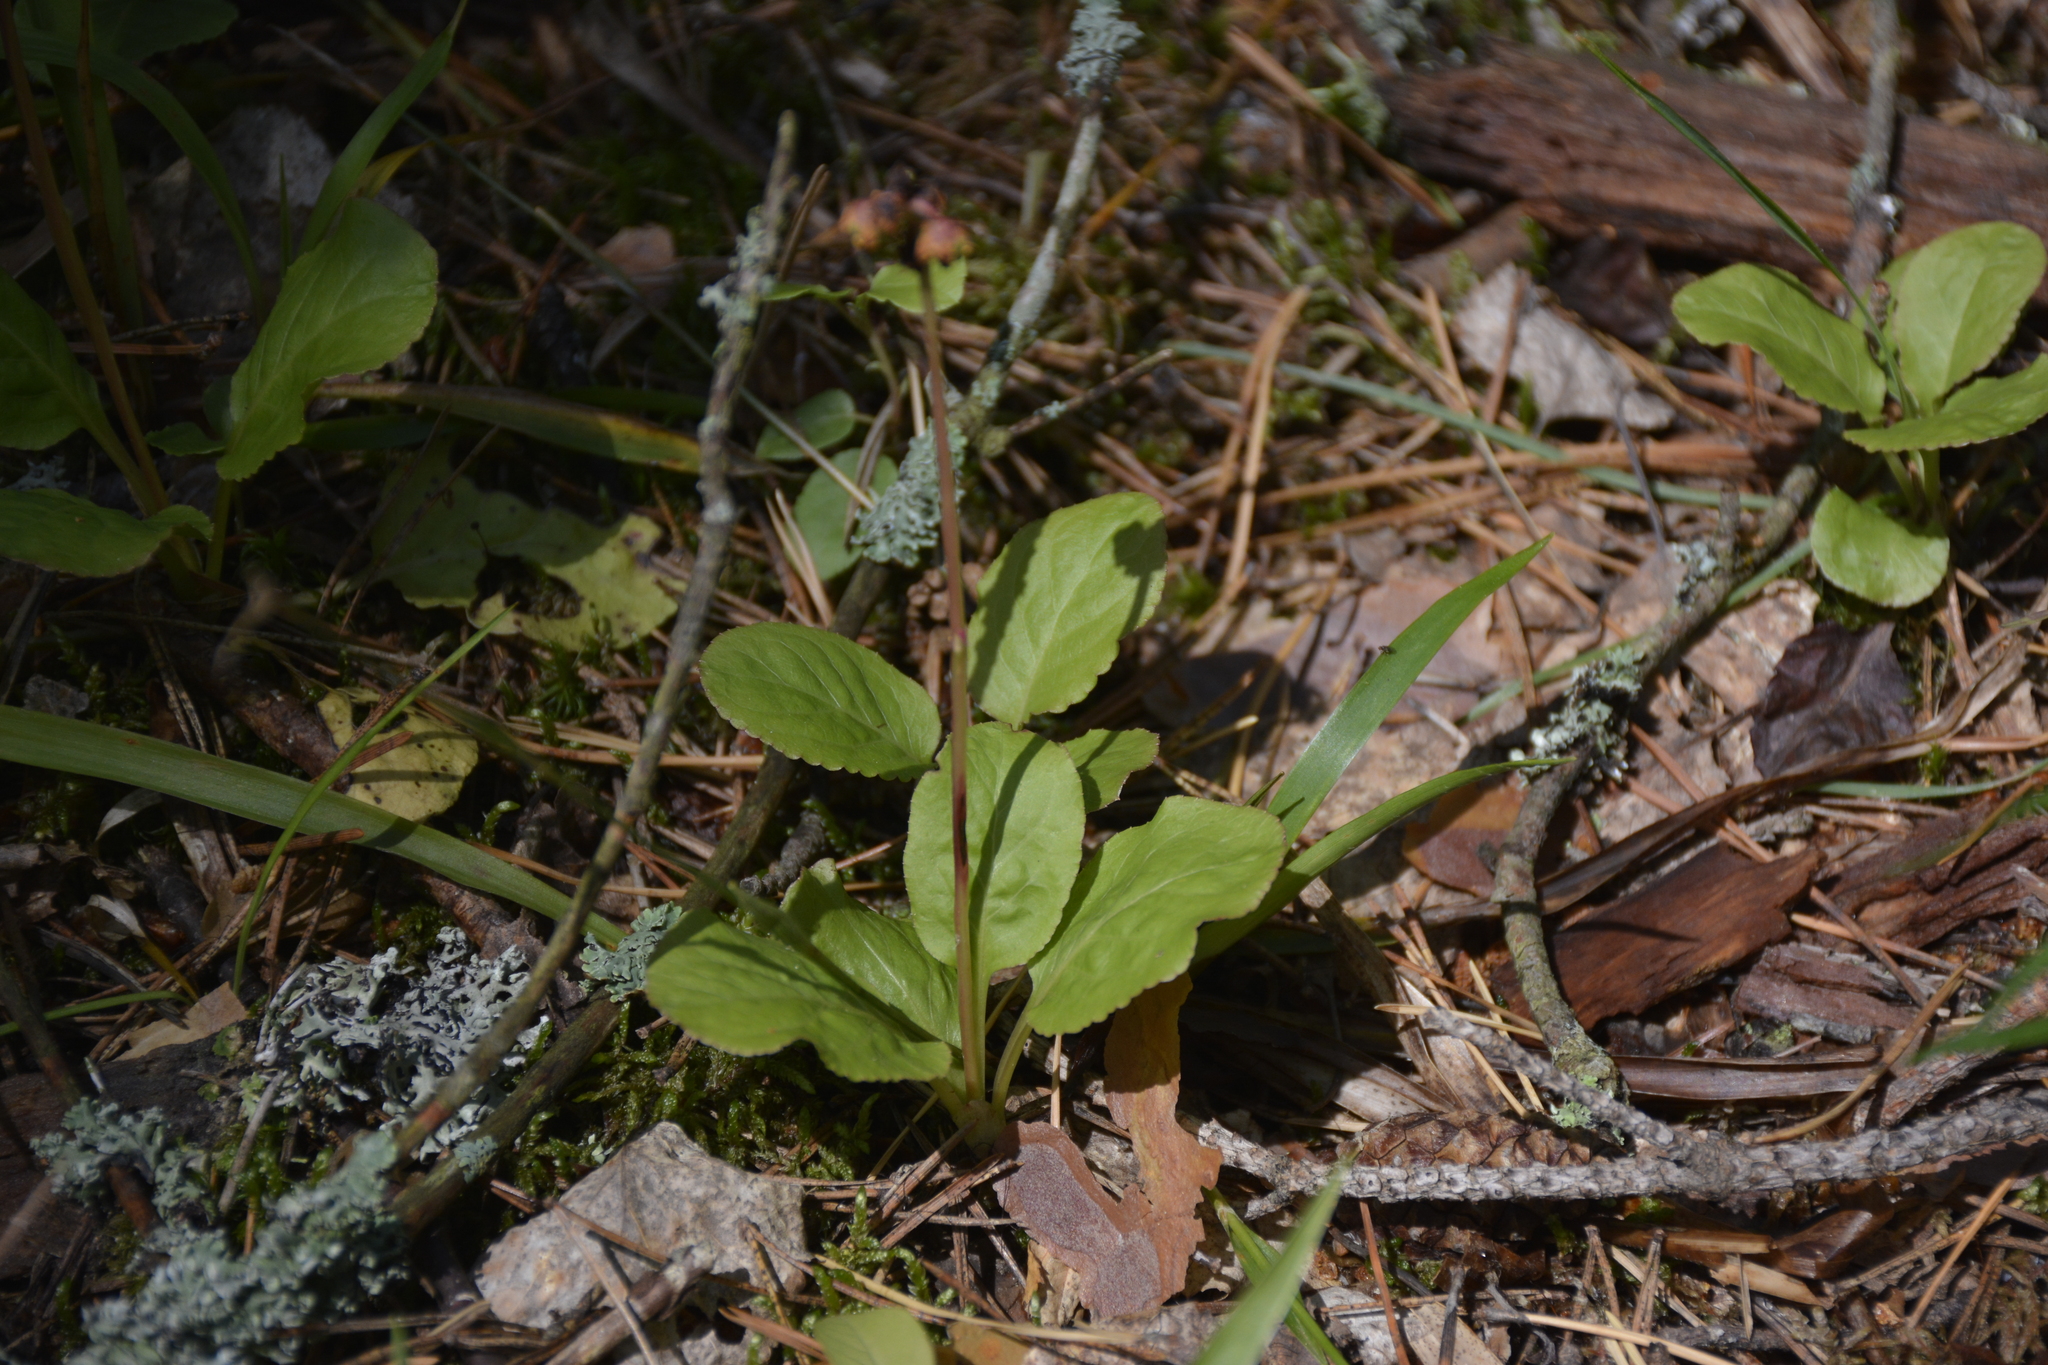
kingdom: Plantae
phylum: Tracheophyta
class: Magnoliopsida
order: Ericales
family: Ericaceae
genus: Pyrola
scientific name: Pyrola minor
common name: Common wintergreen
